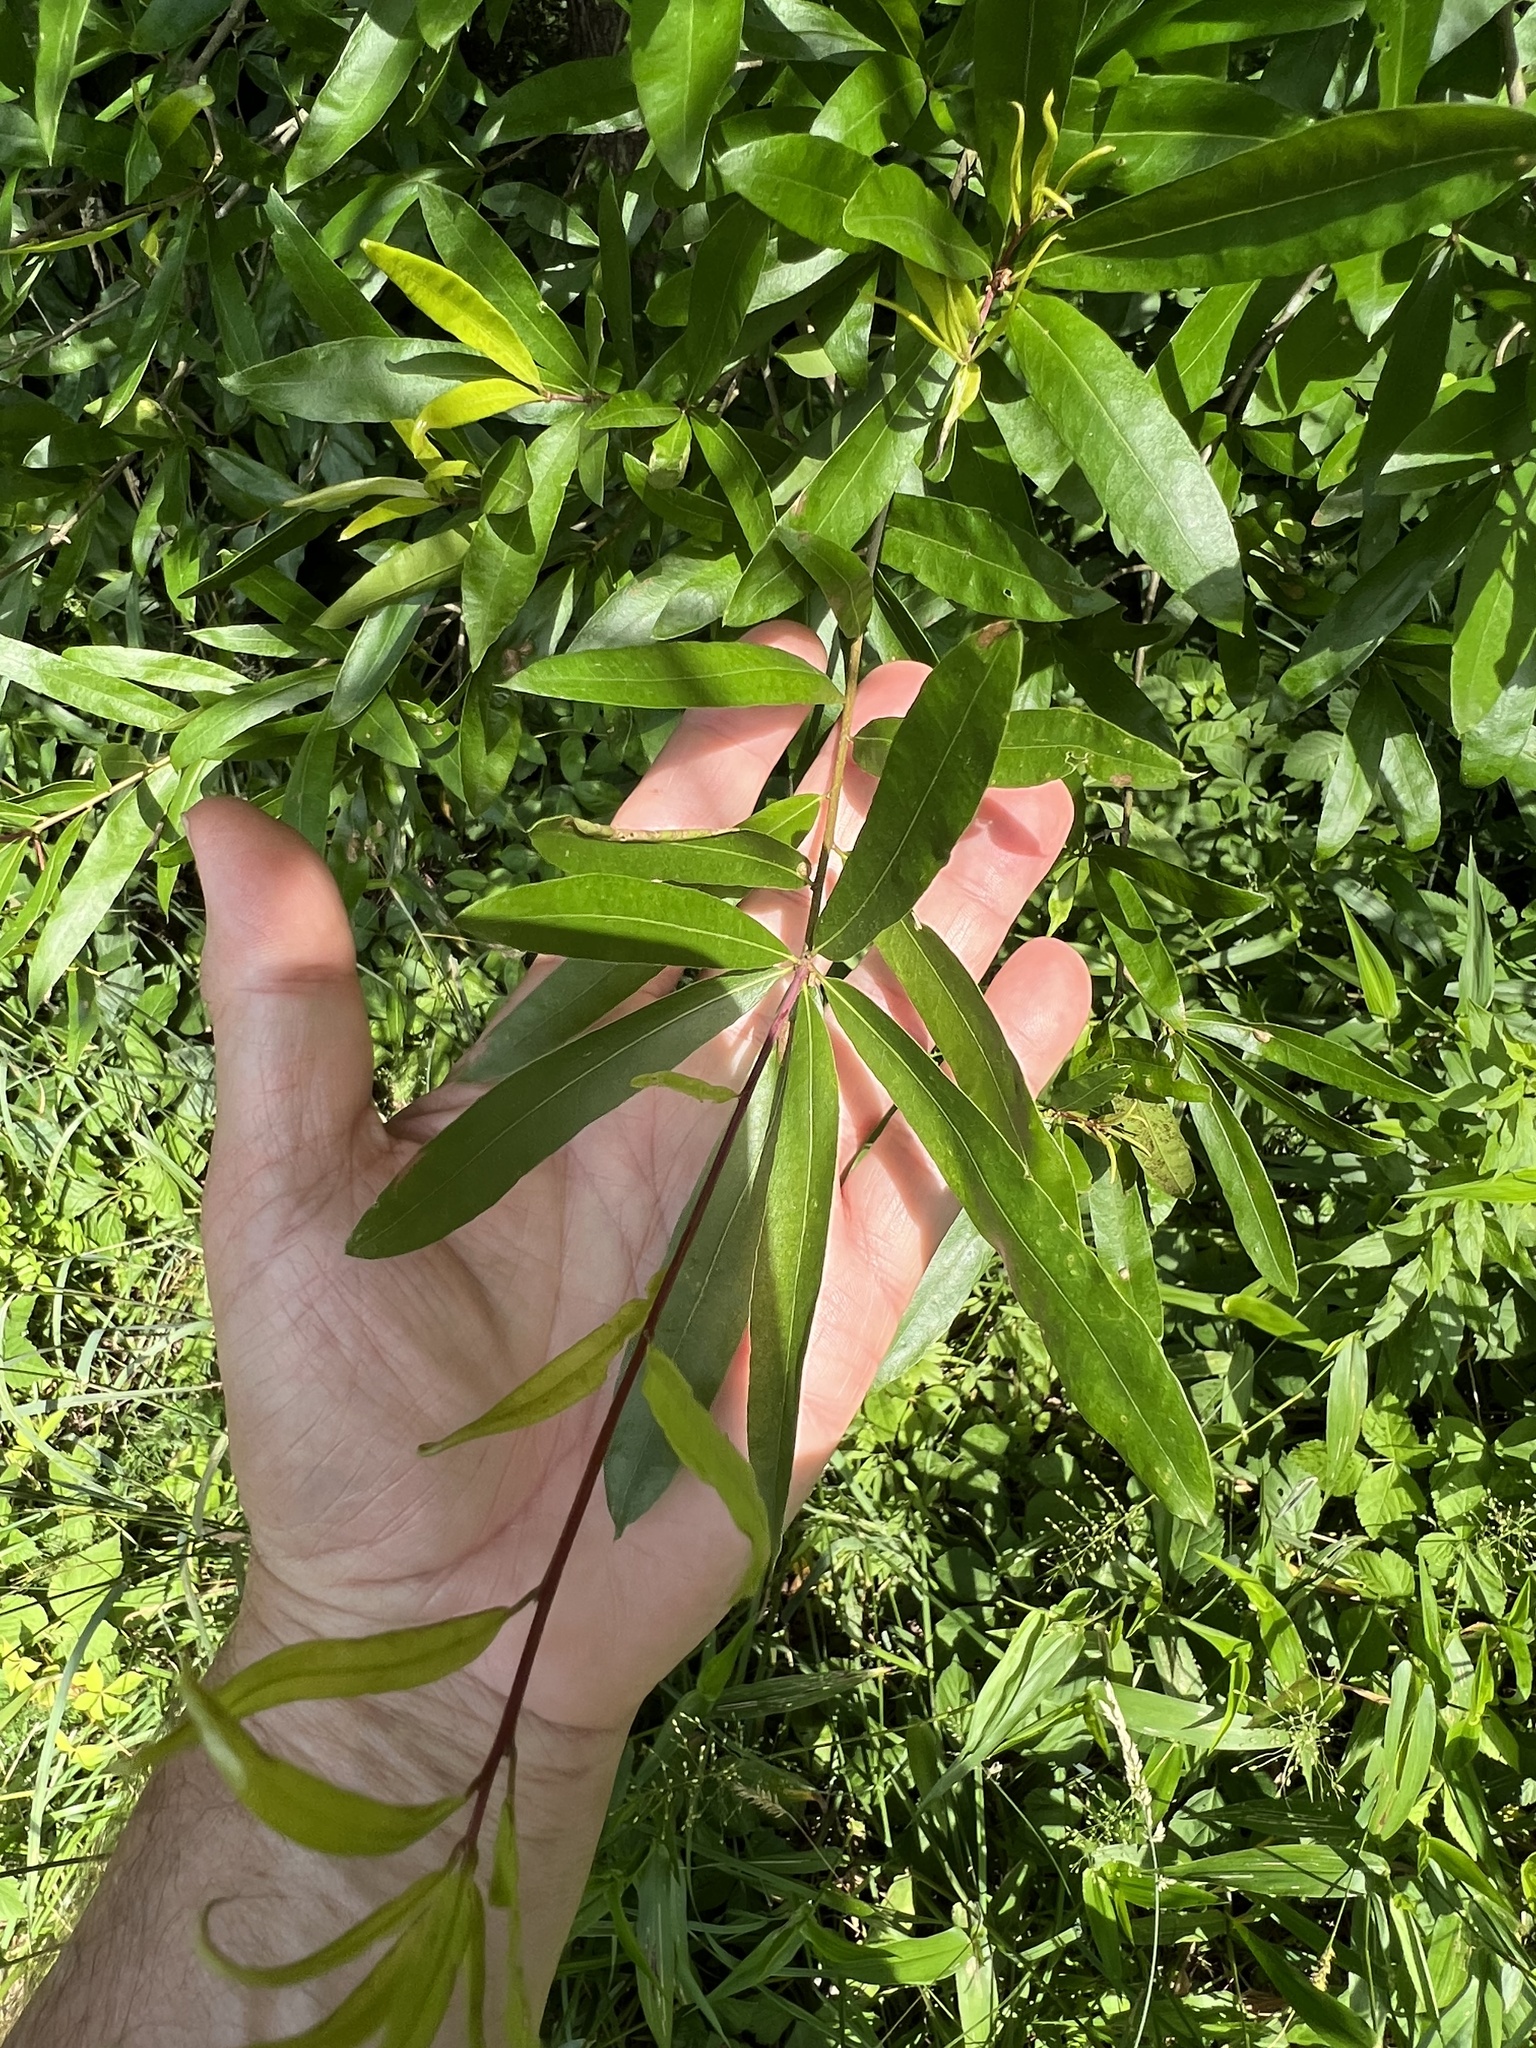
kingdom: Animalia
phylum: Arthropoda
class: Insecta
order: Diptera
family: Cecidomyiidae
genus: Polystepha
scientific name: Polystepha pilulae
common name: Oak leaf gall midge
